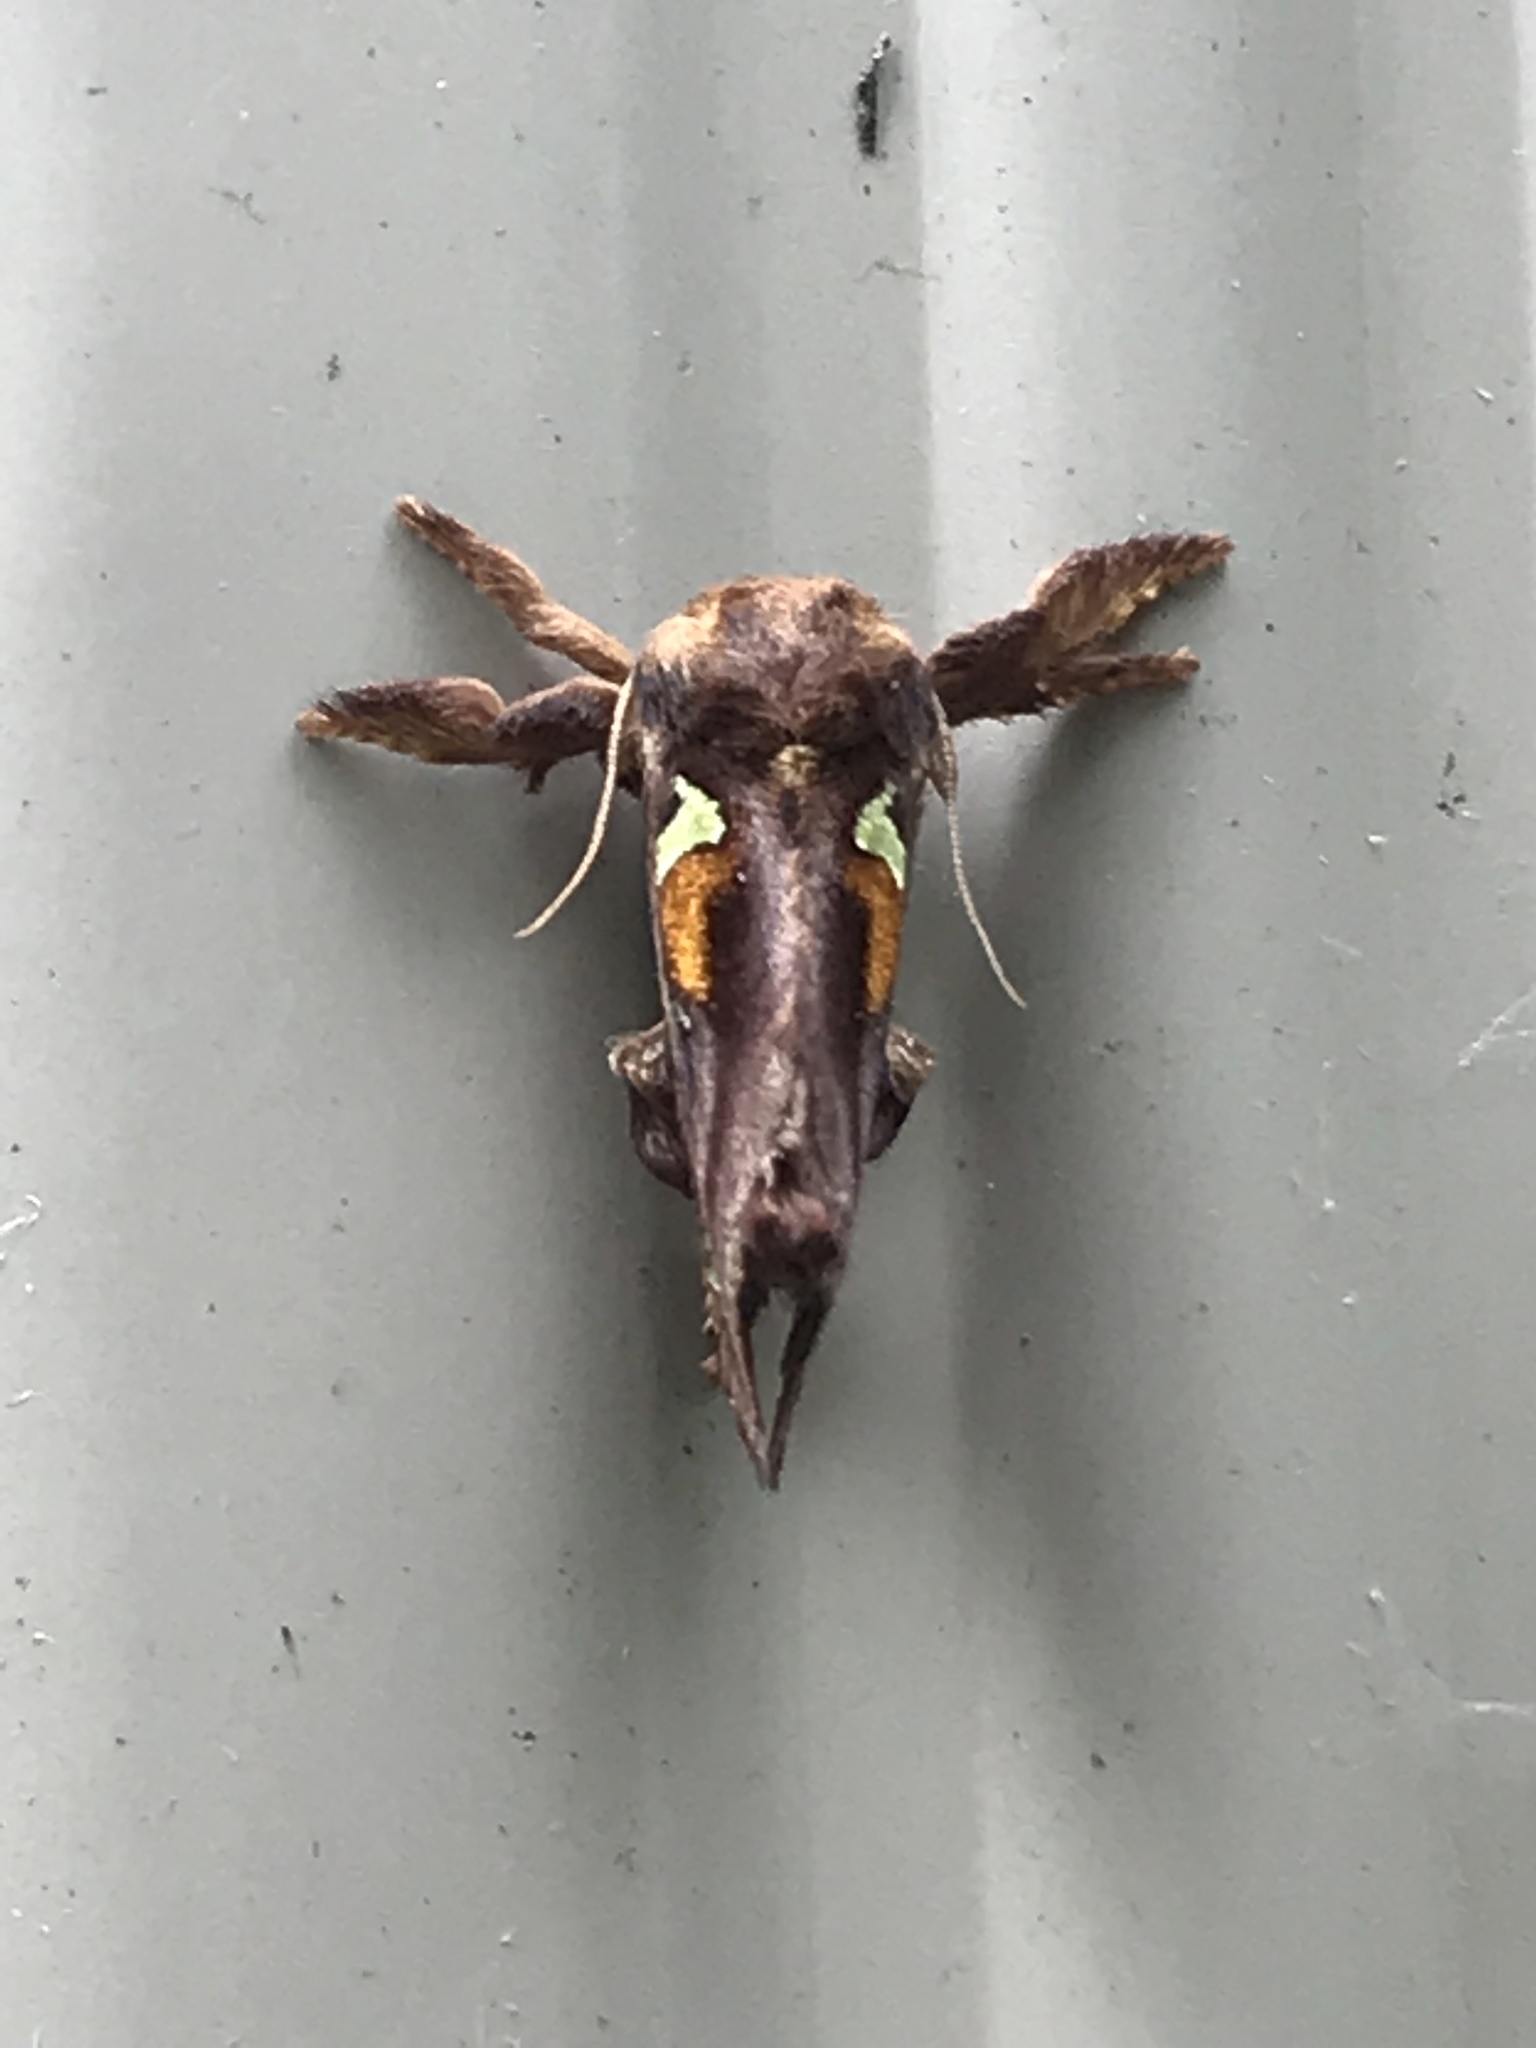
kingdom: Animalia
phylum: Arthropoda
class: Insecta
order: Lepidoptera
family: Limacodidae
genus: Euclea
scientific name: Euclea delphinii
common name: Spiny oak-slug moth
